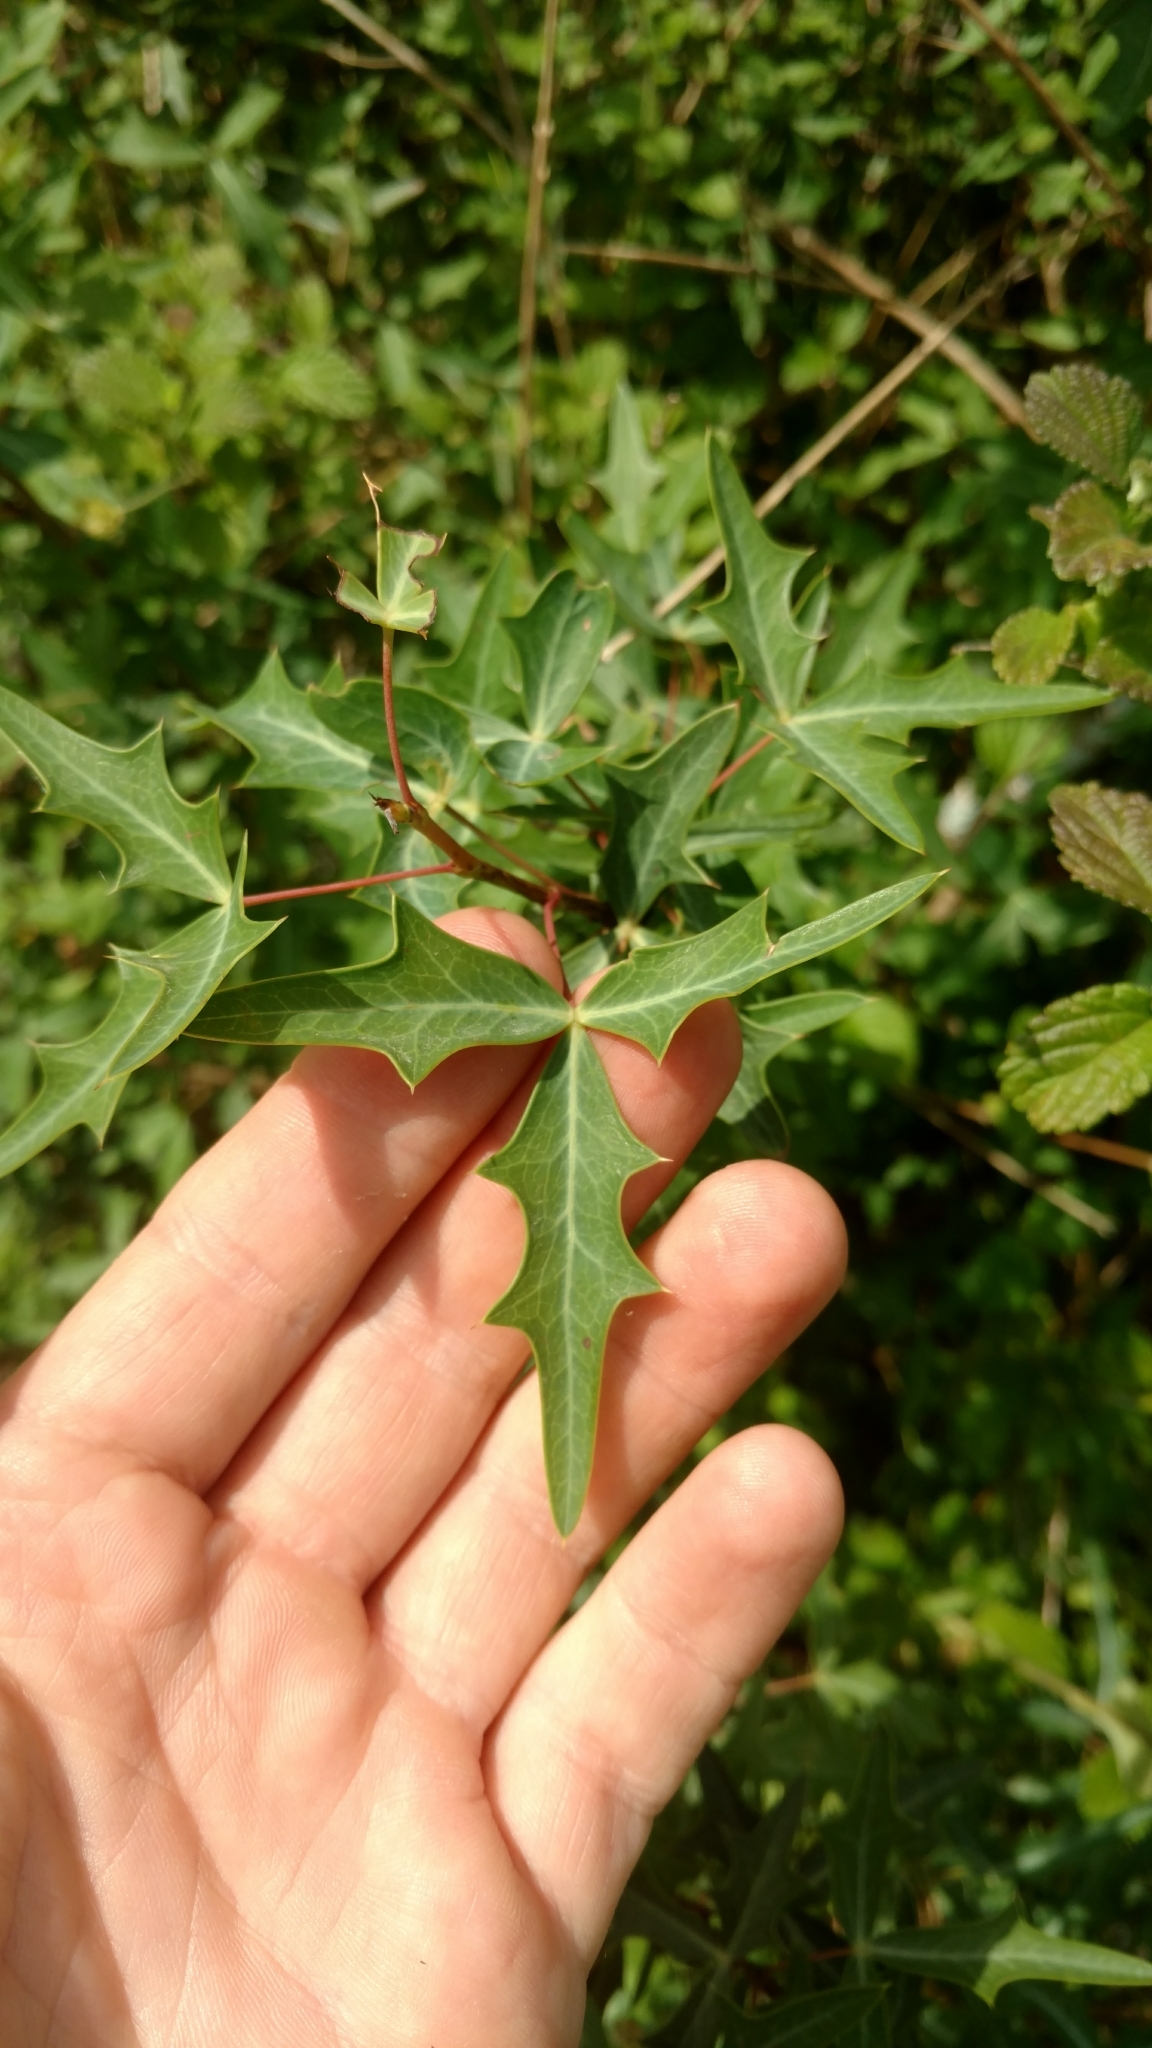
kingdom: Plantae
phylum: Tracheophyta
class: Magnoliopsida
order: Ranunculales
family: Berberidaceae
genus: Alloberberis
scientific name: Alloberberis trifoliolata
